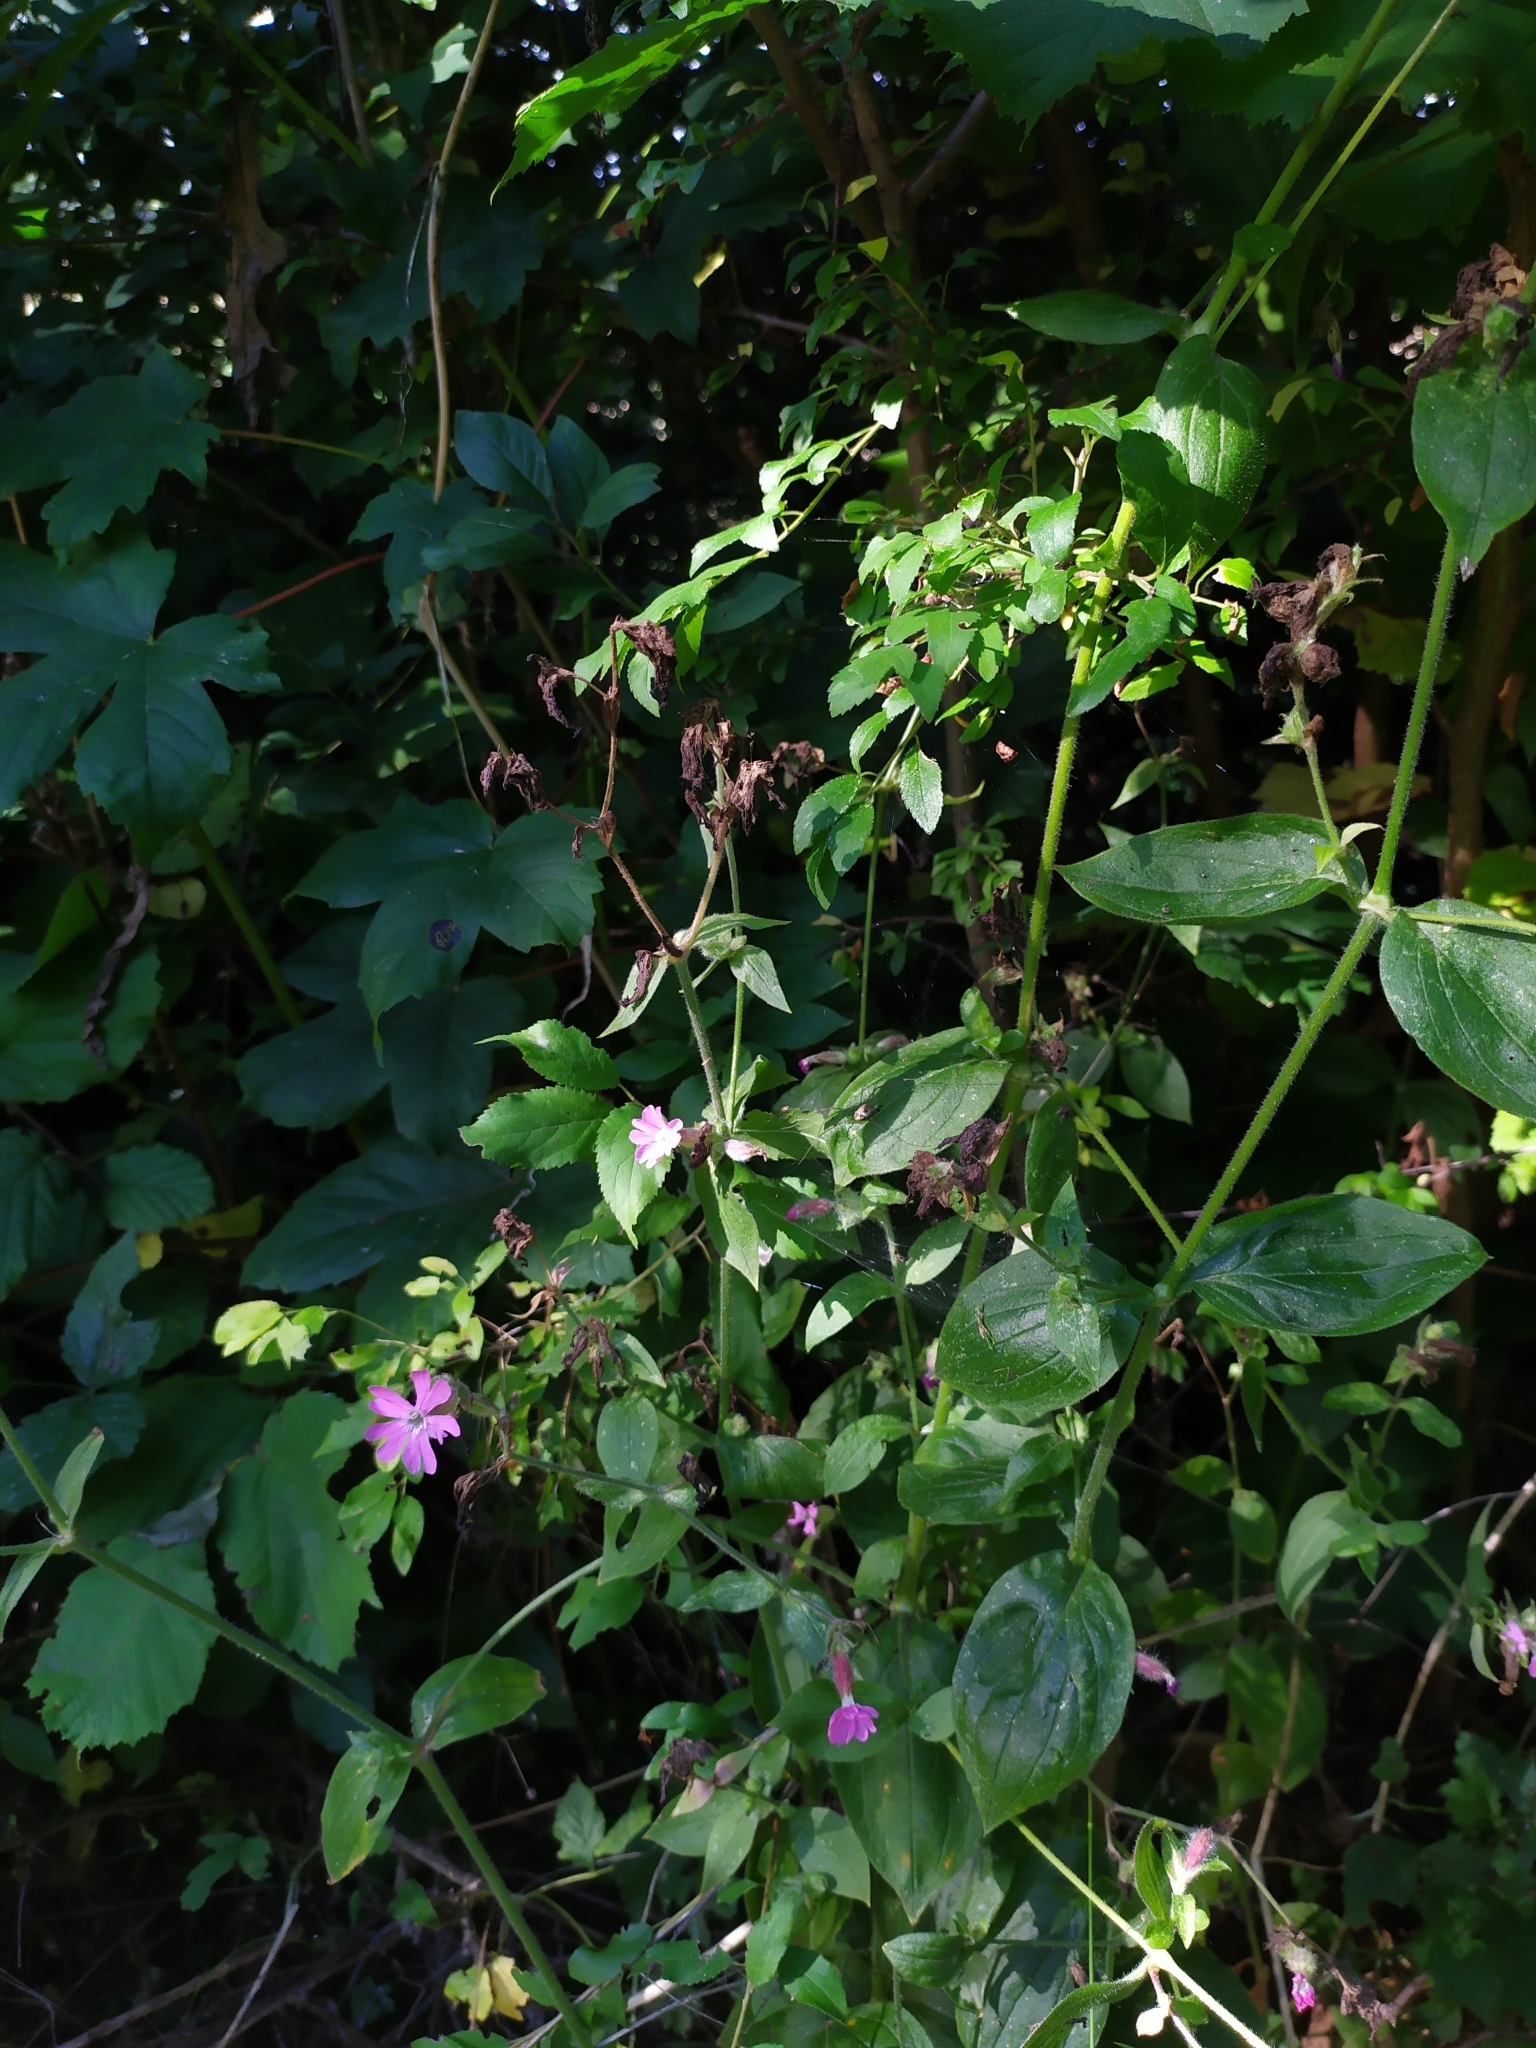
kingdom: Plantae
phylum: Tracheophyta
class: Magnoliopsida
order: Caryophyllales
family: Caryophyllaceae
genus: Silene
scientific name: Silene dioica
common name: Red campion
